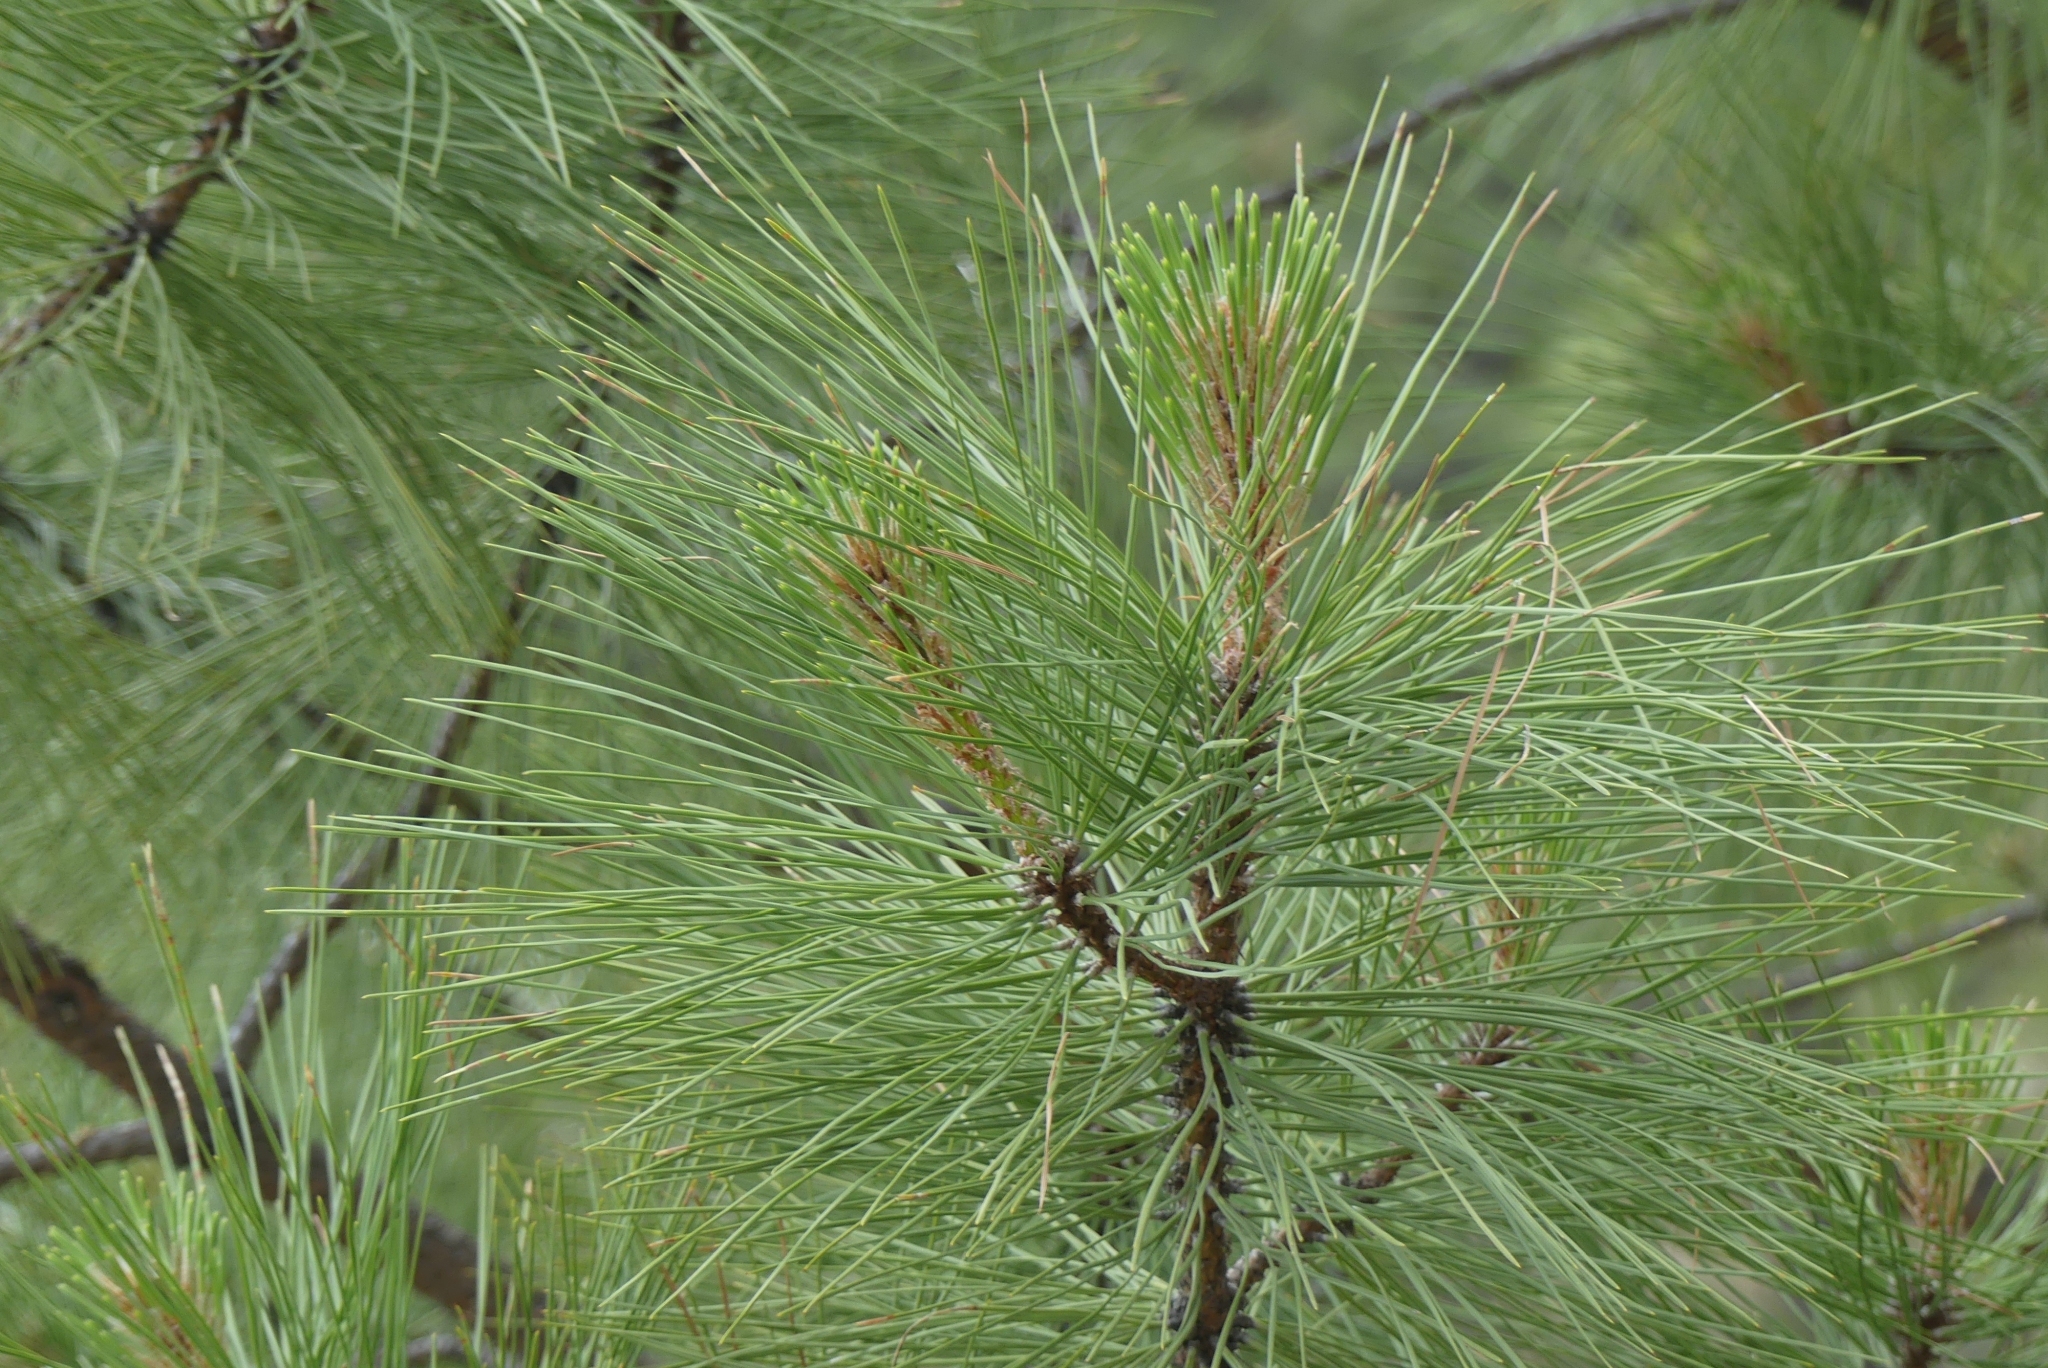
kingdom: Plantae
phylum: Tracheophyta
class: Pinopsida
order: Pinales
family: Pinaceae
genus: Pinus
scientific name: Pinus ponderosa
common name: Western yellow-pine
